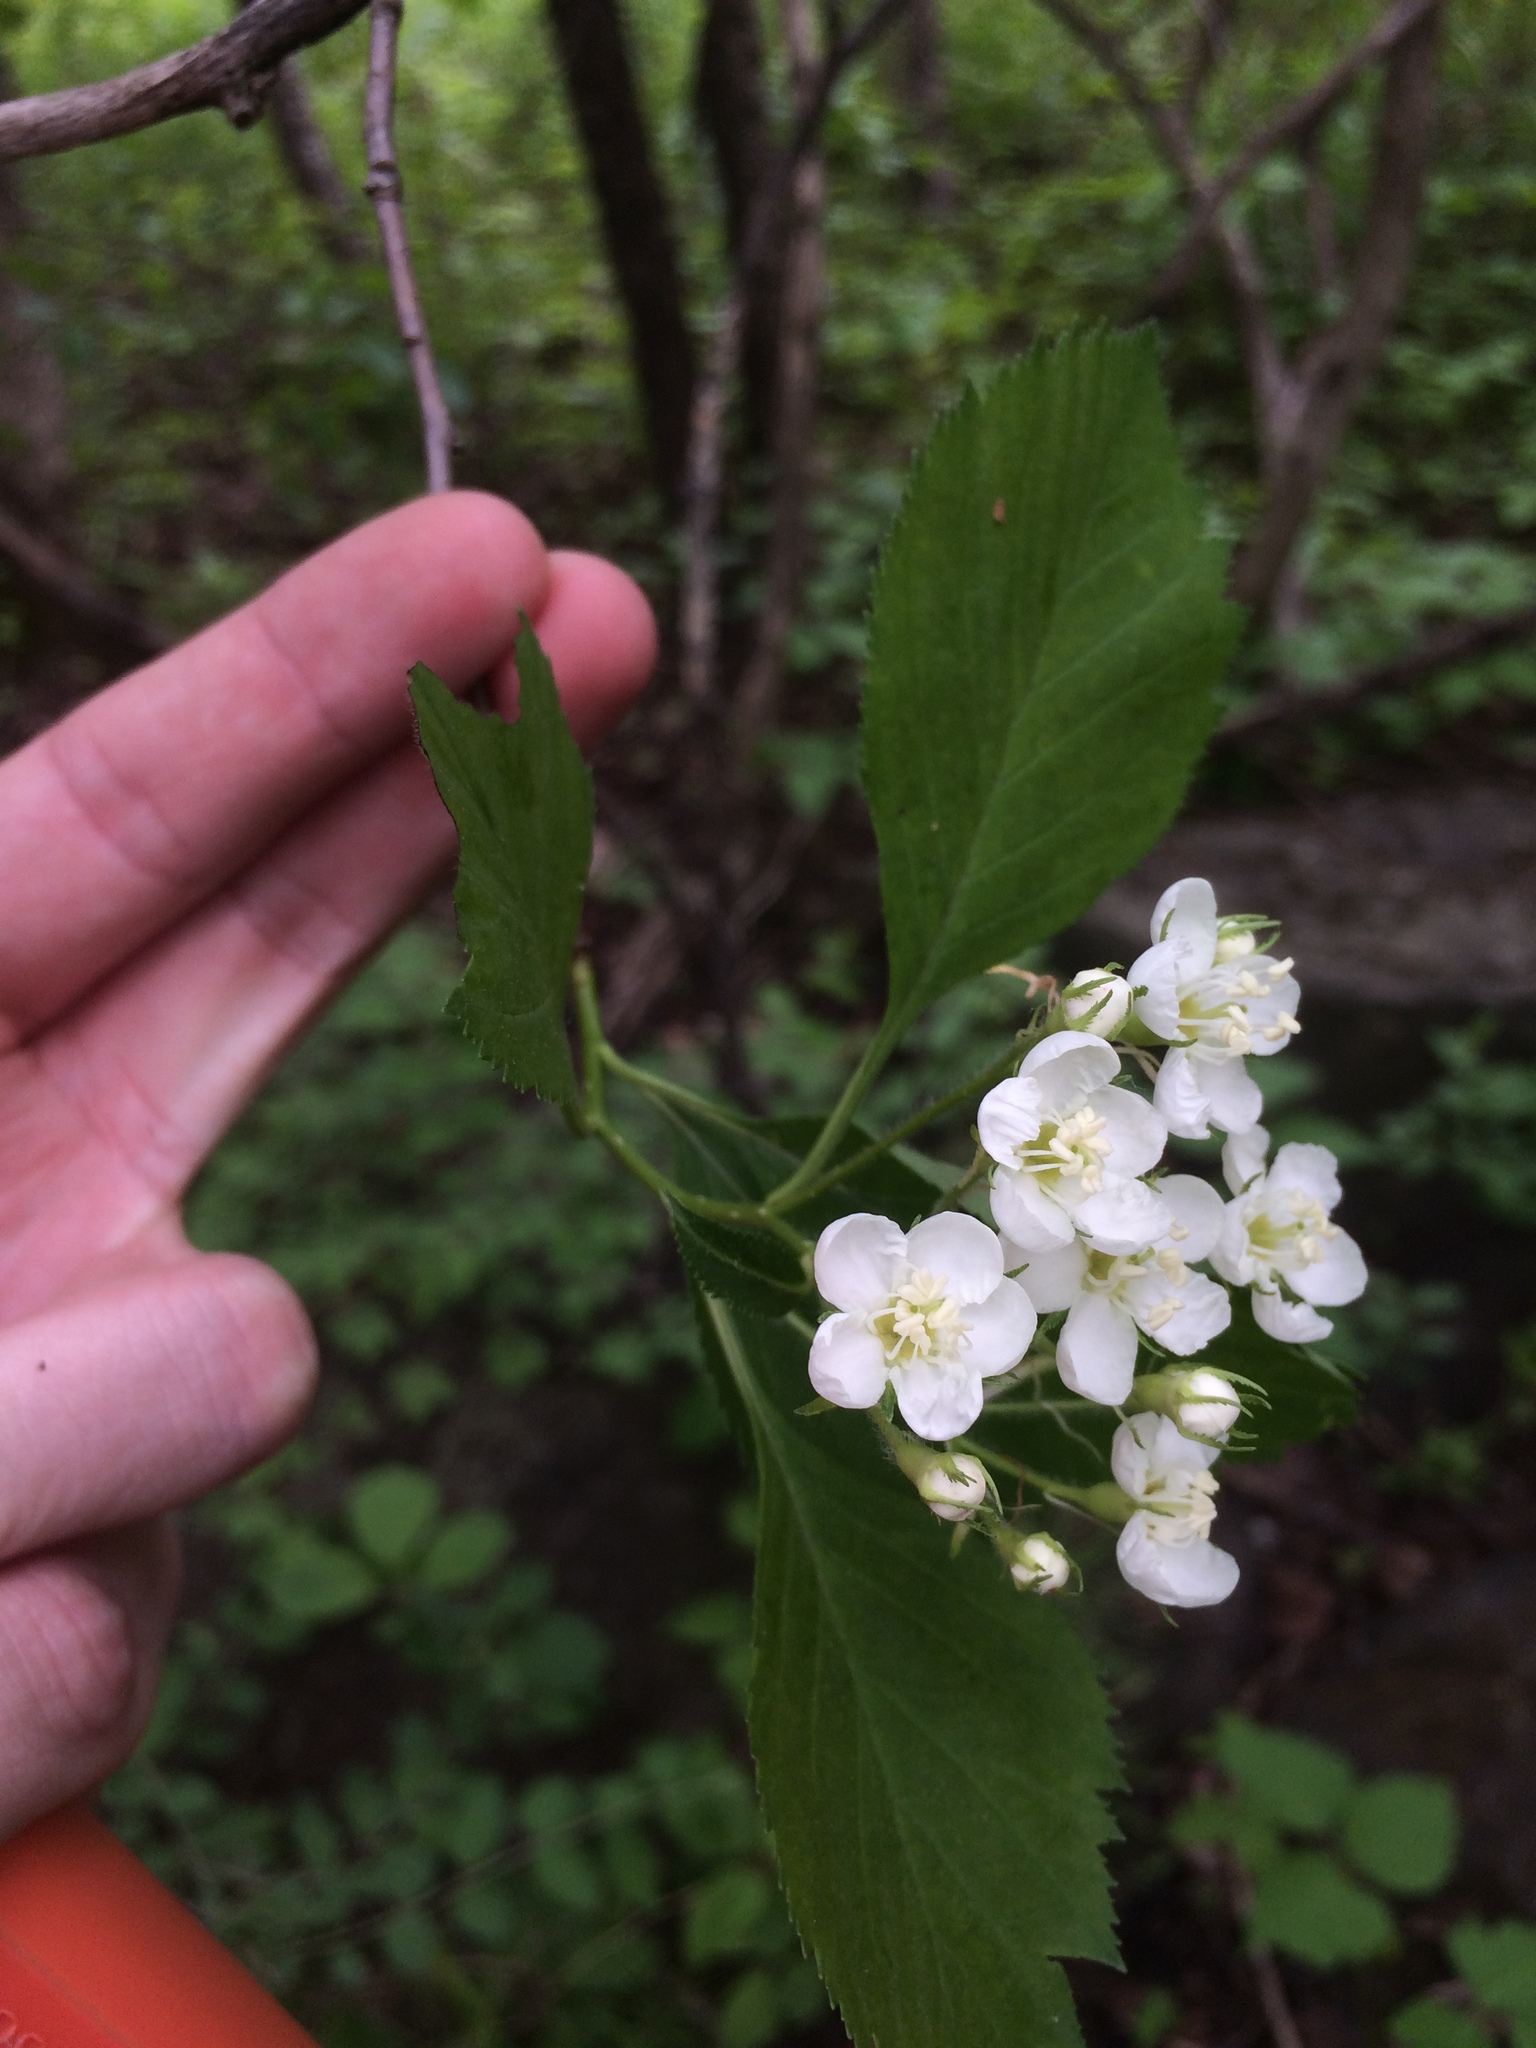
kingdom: Plantae
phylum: Tracheophyta
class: Magnoliopsida
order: Rosales
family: Rosaceae
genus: Crataegus
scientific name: Crataegus macracantha
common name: Large-thorn hawthorn
